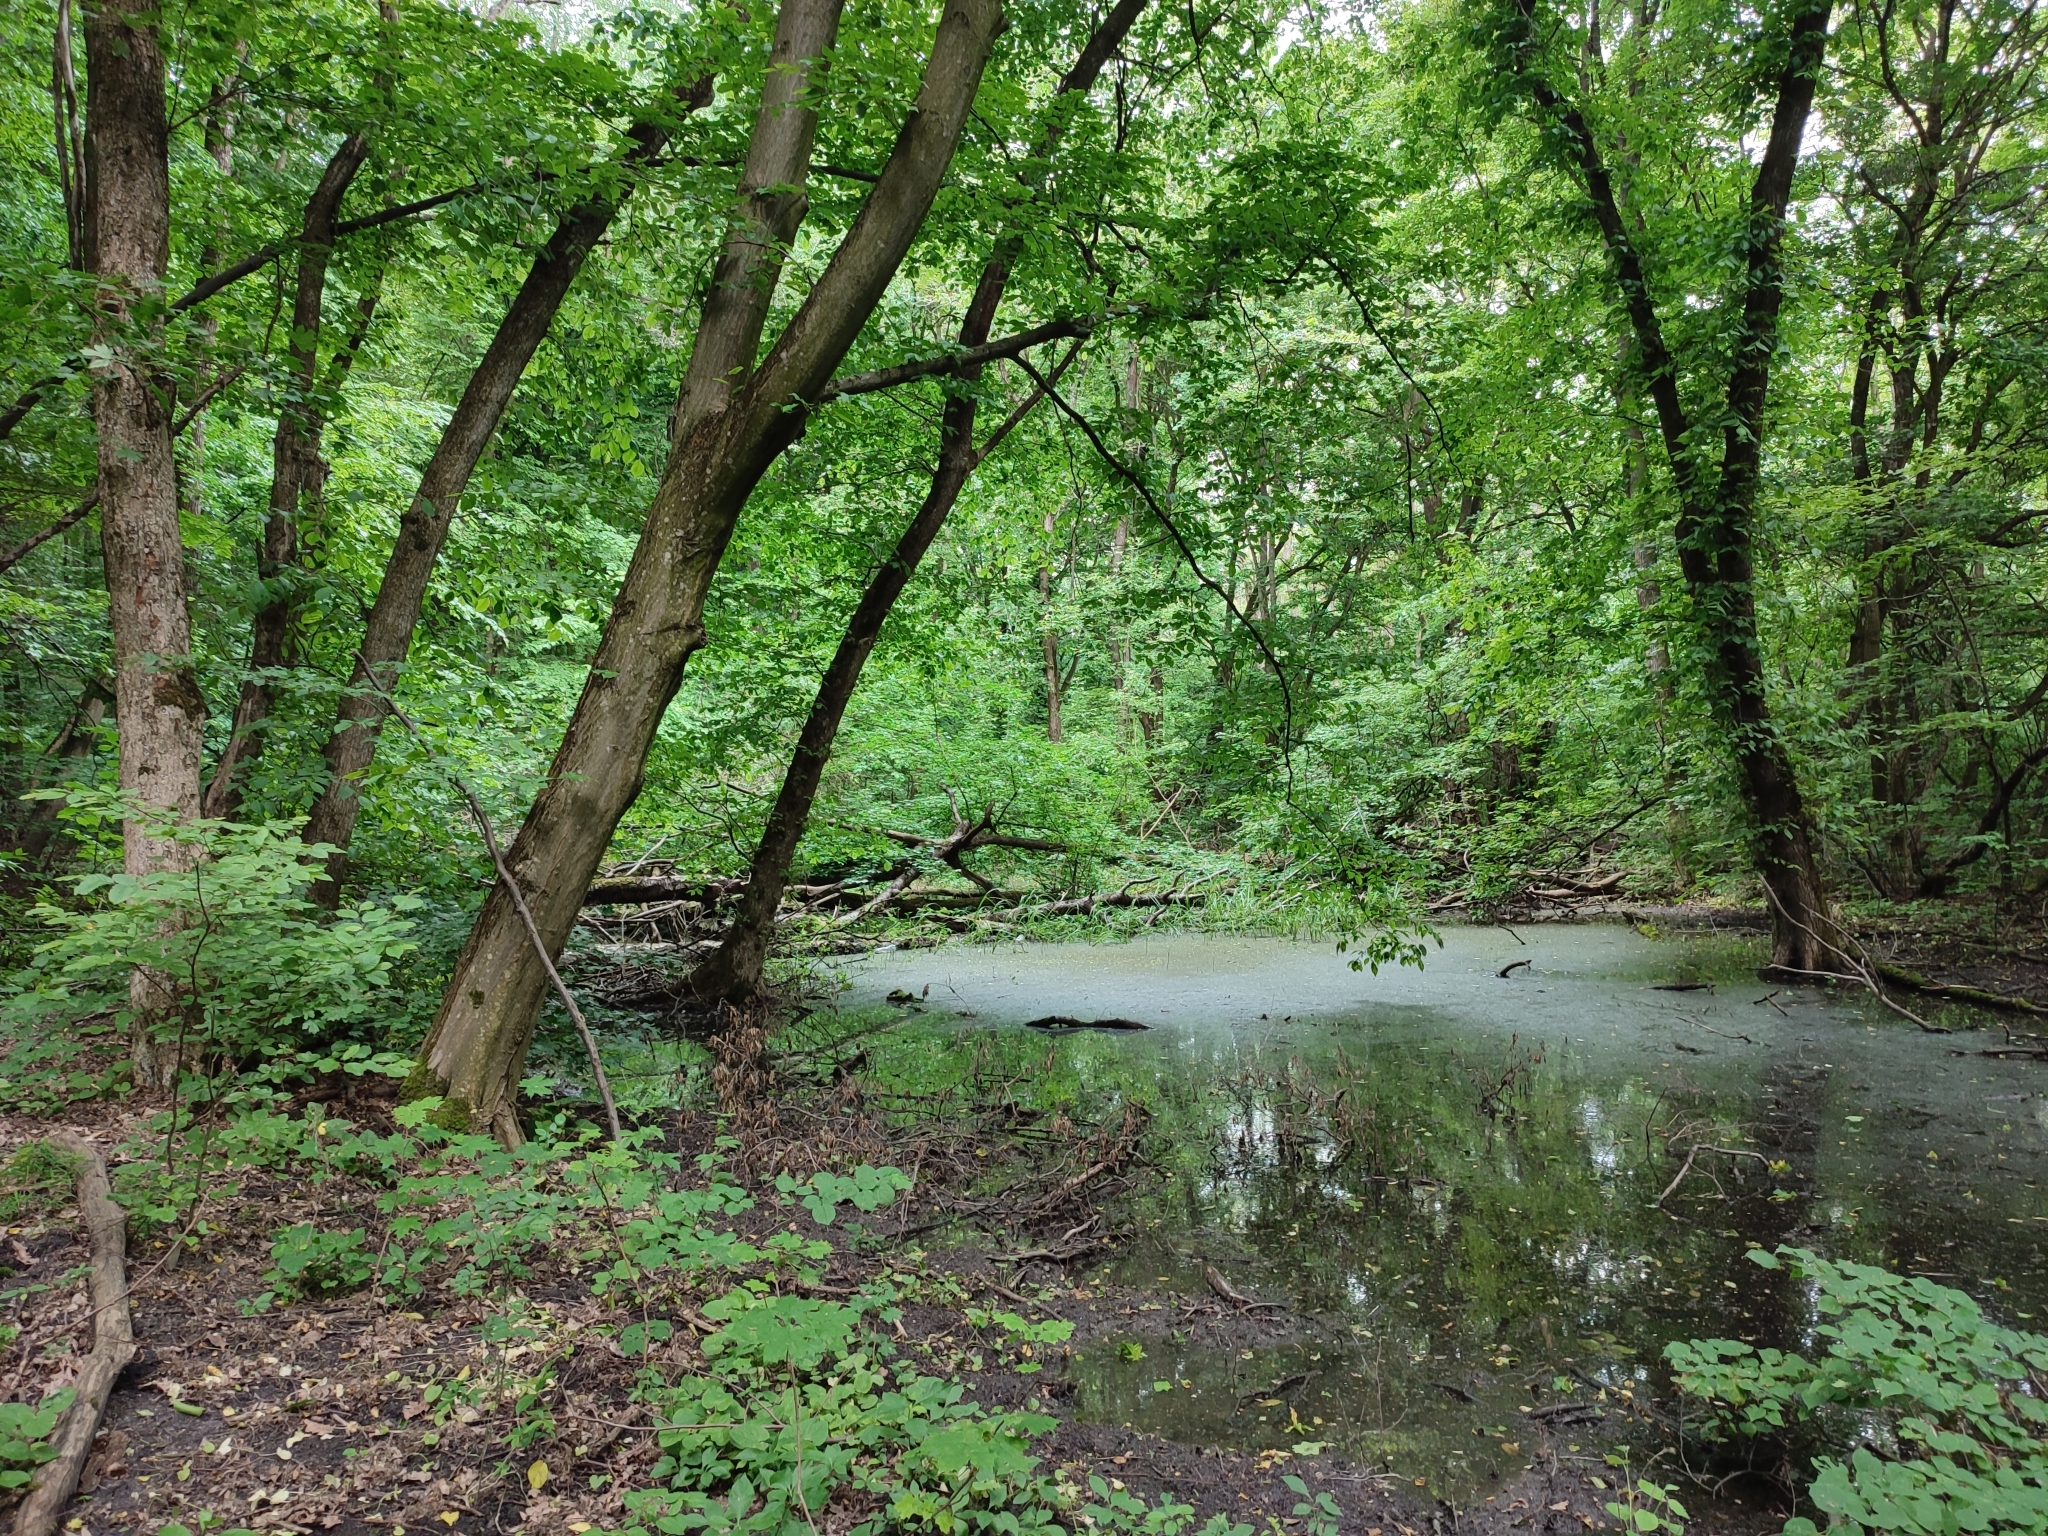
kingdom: Plantae
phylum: Tracheophyta
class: Magnoliopsida
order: Fagales
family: Betulaceae
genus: Carpinus
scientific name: Carpinus betulus
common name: Hornbeam
